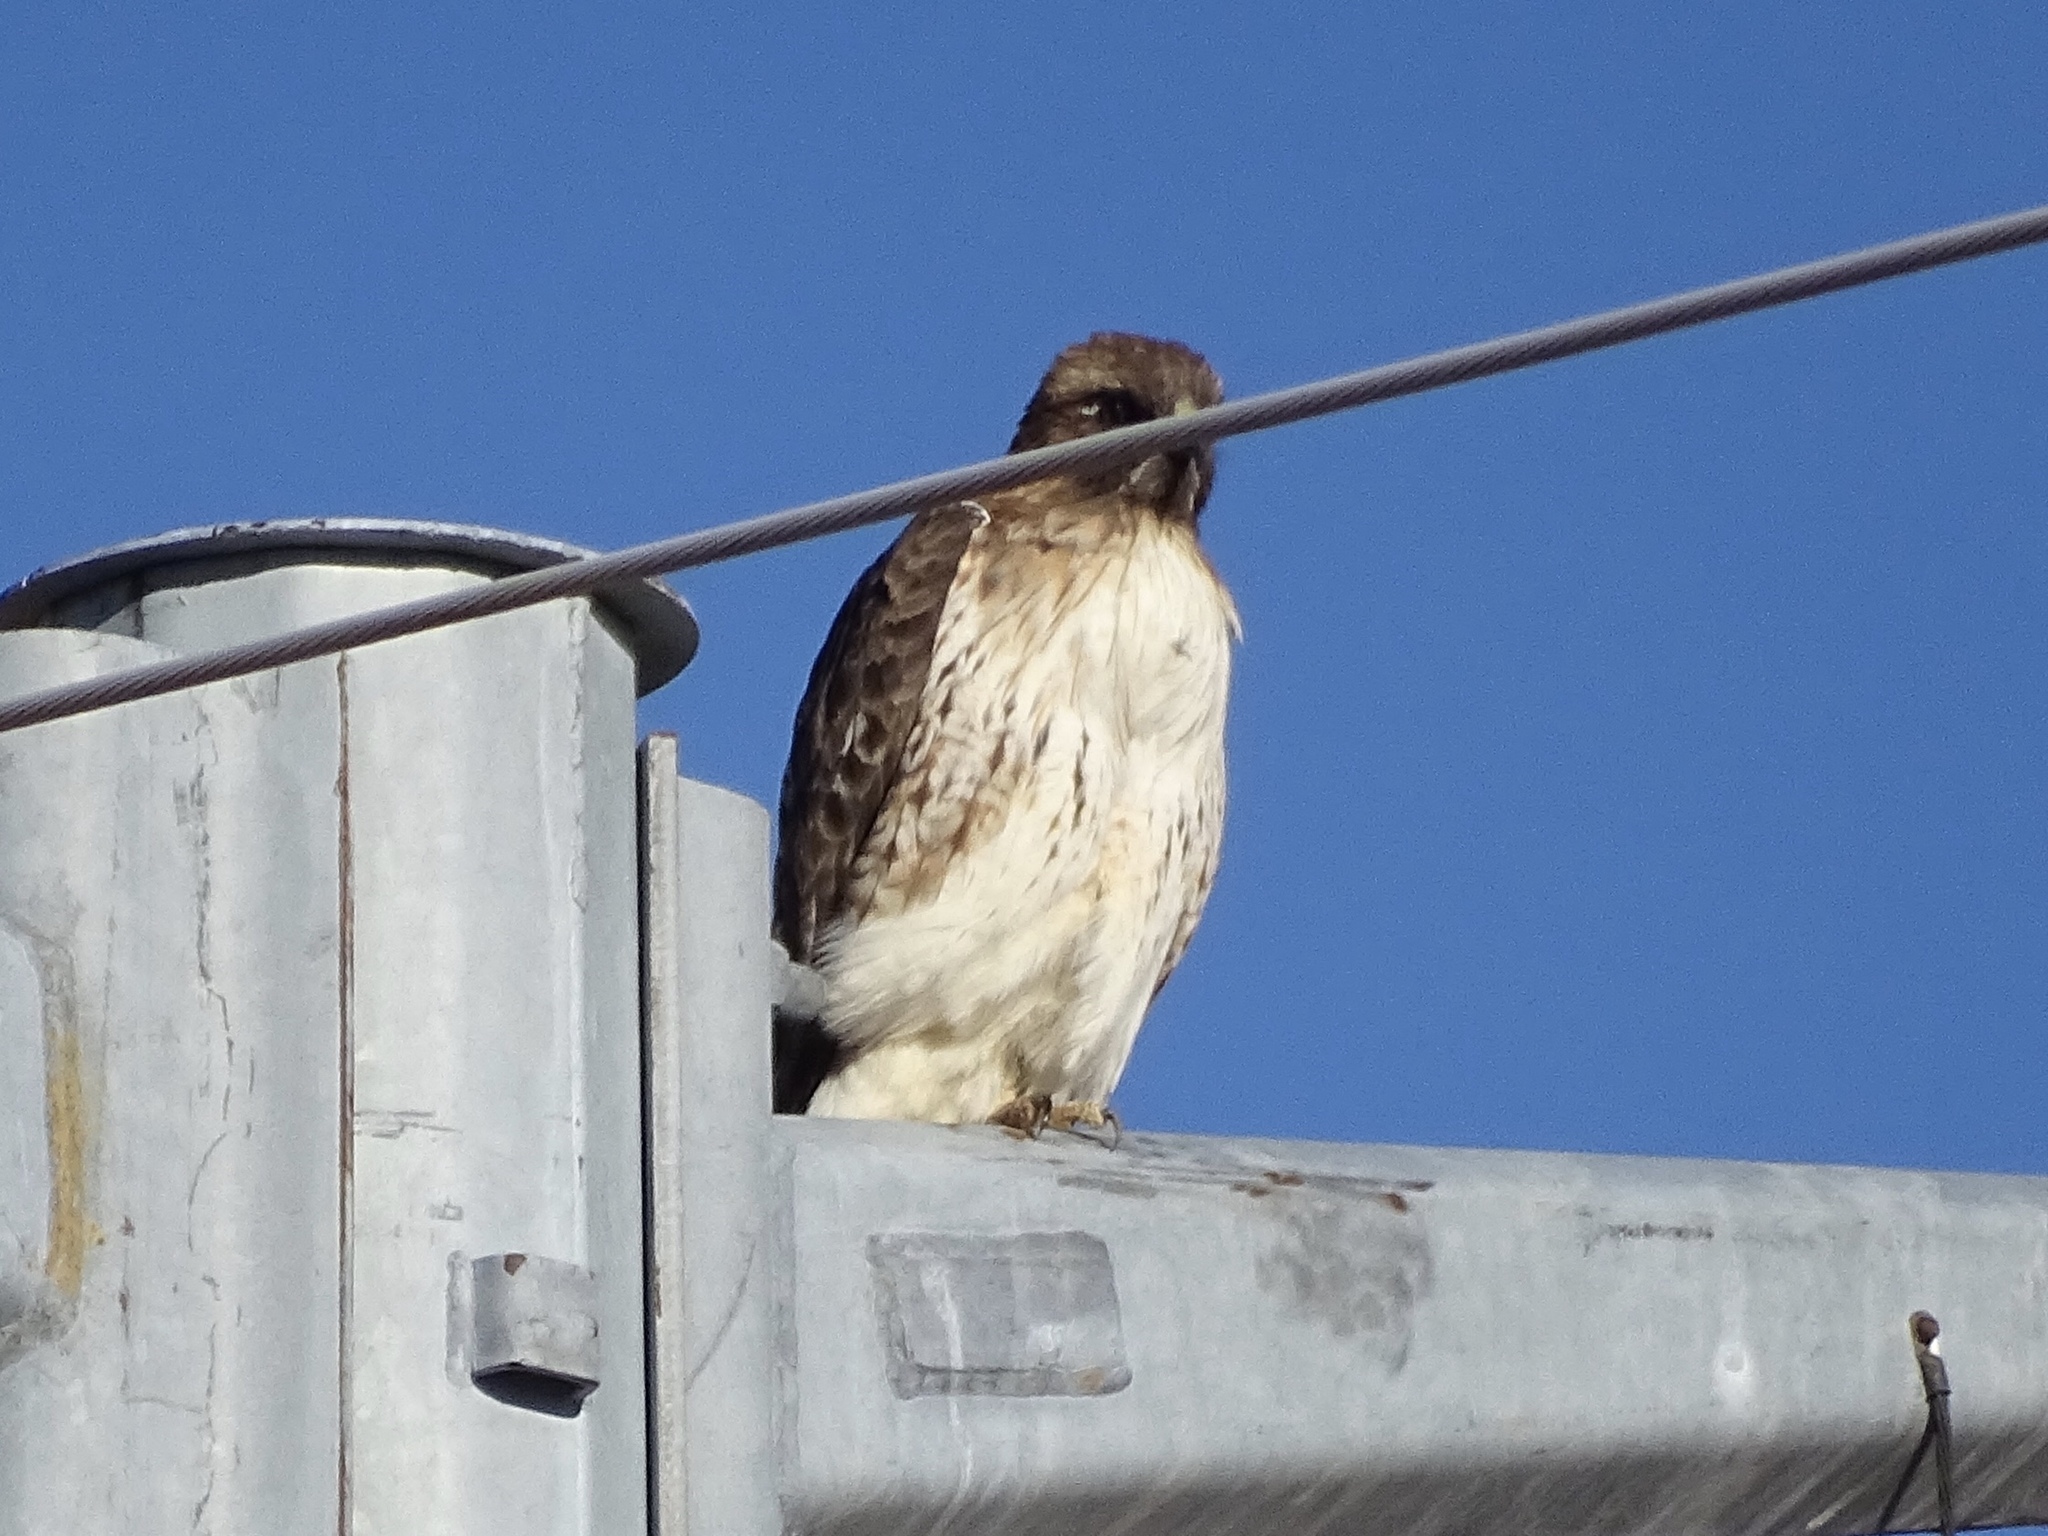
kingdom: Animalia
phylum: Chordata
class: Aves
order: Accipitriformes
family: Accipitridae
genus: Buteo
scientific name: Buteo jamaicensis
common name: Red-tailed hawk
